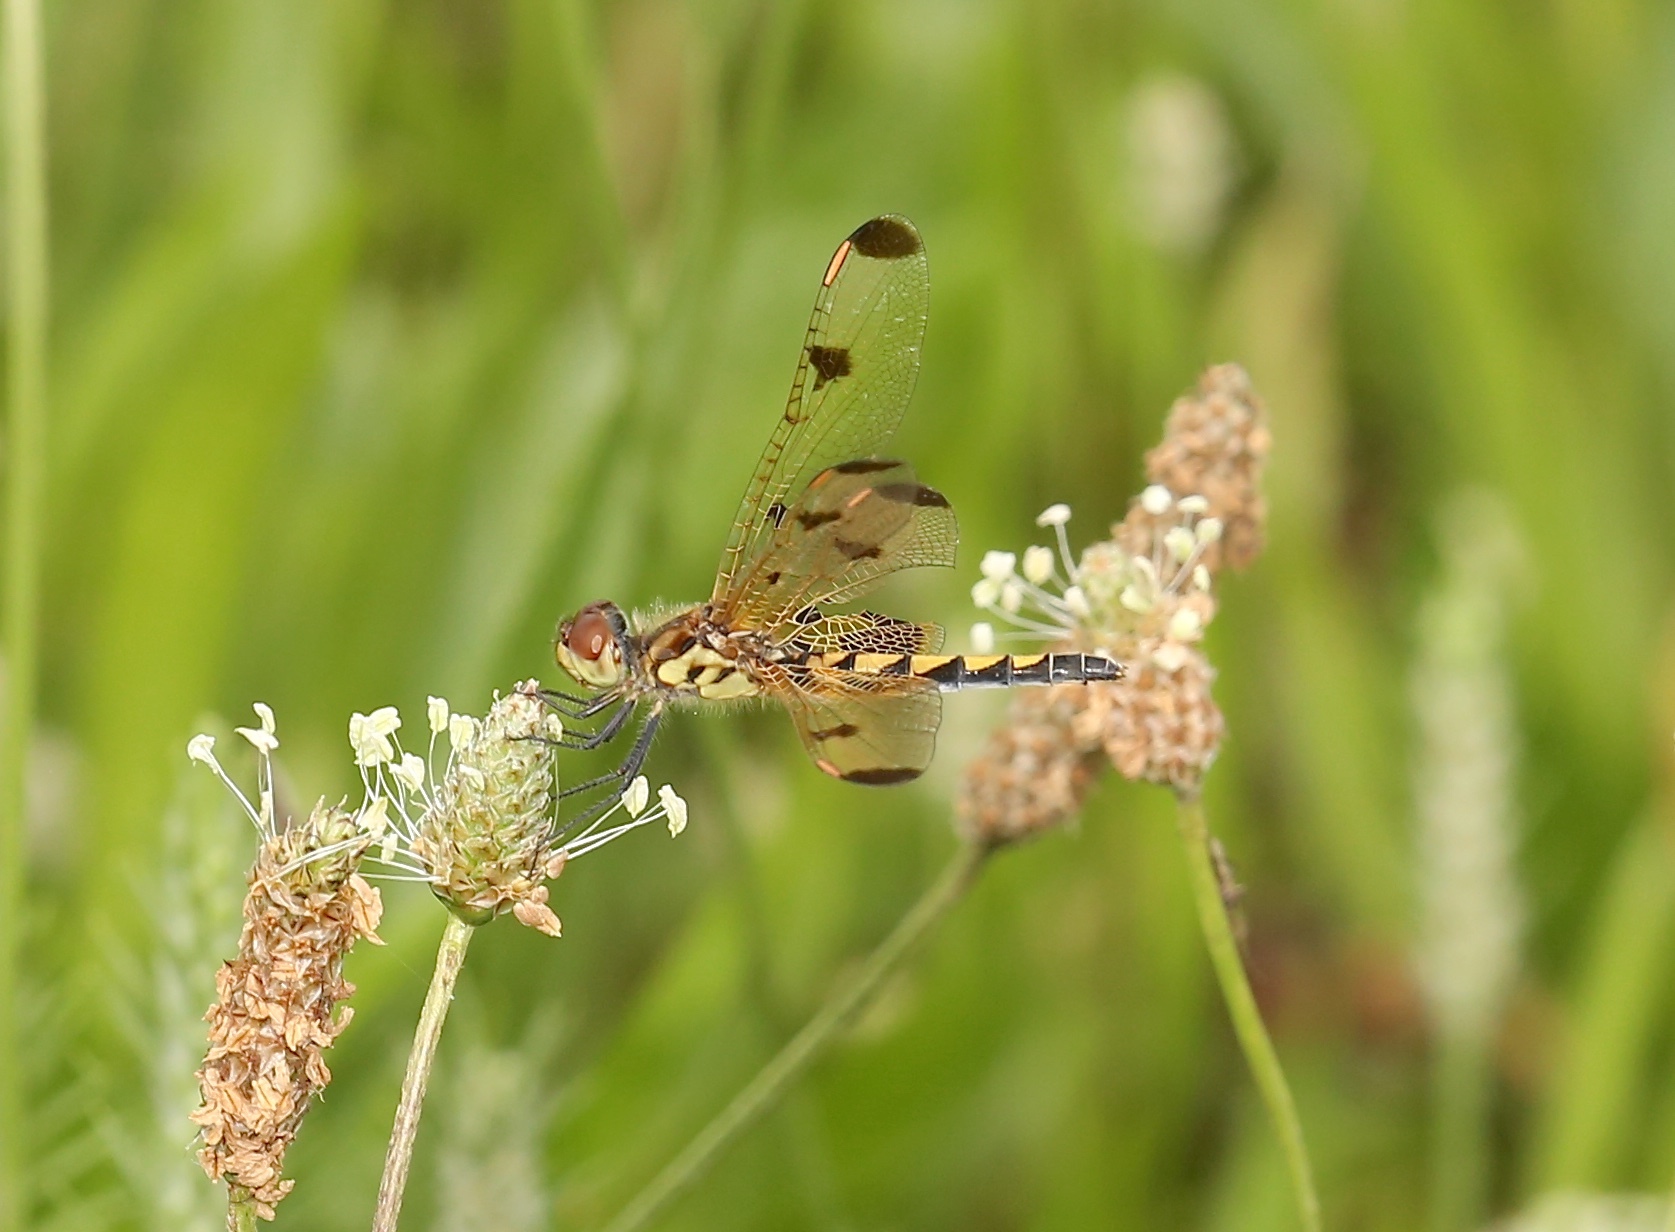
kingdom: Animalia
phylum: Arthropoda
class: Insecta
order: Odonata
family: Libellulidae
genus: Celithemis
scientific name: Celithemis elisa
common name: Calico pennant
